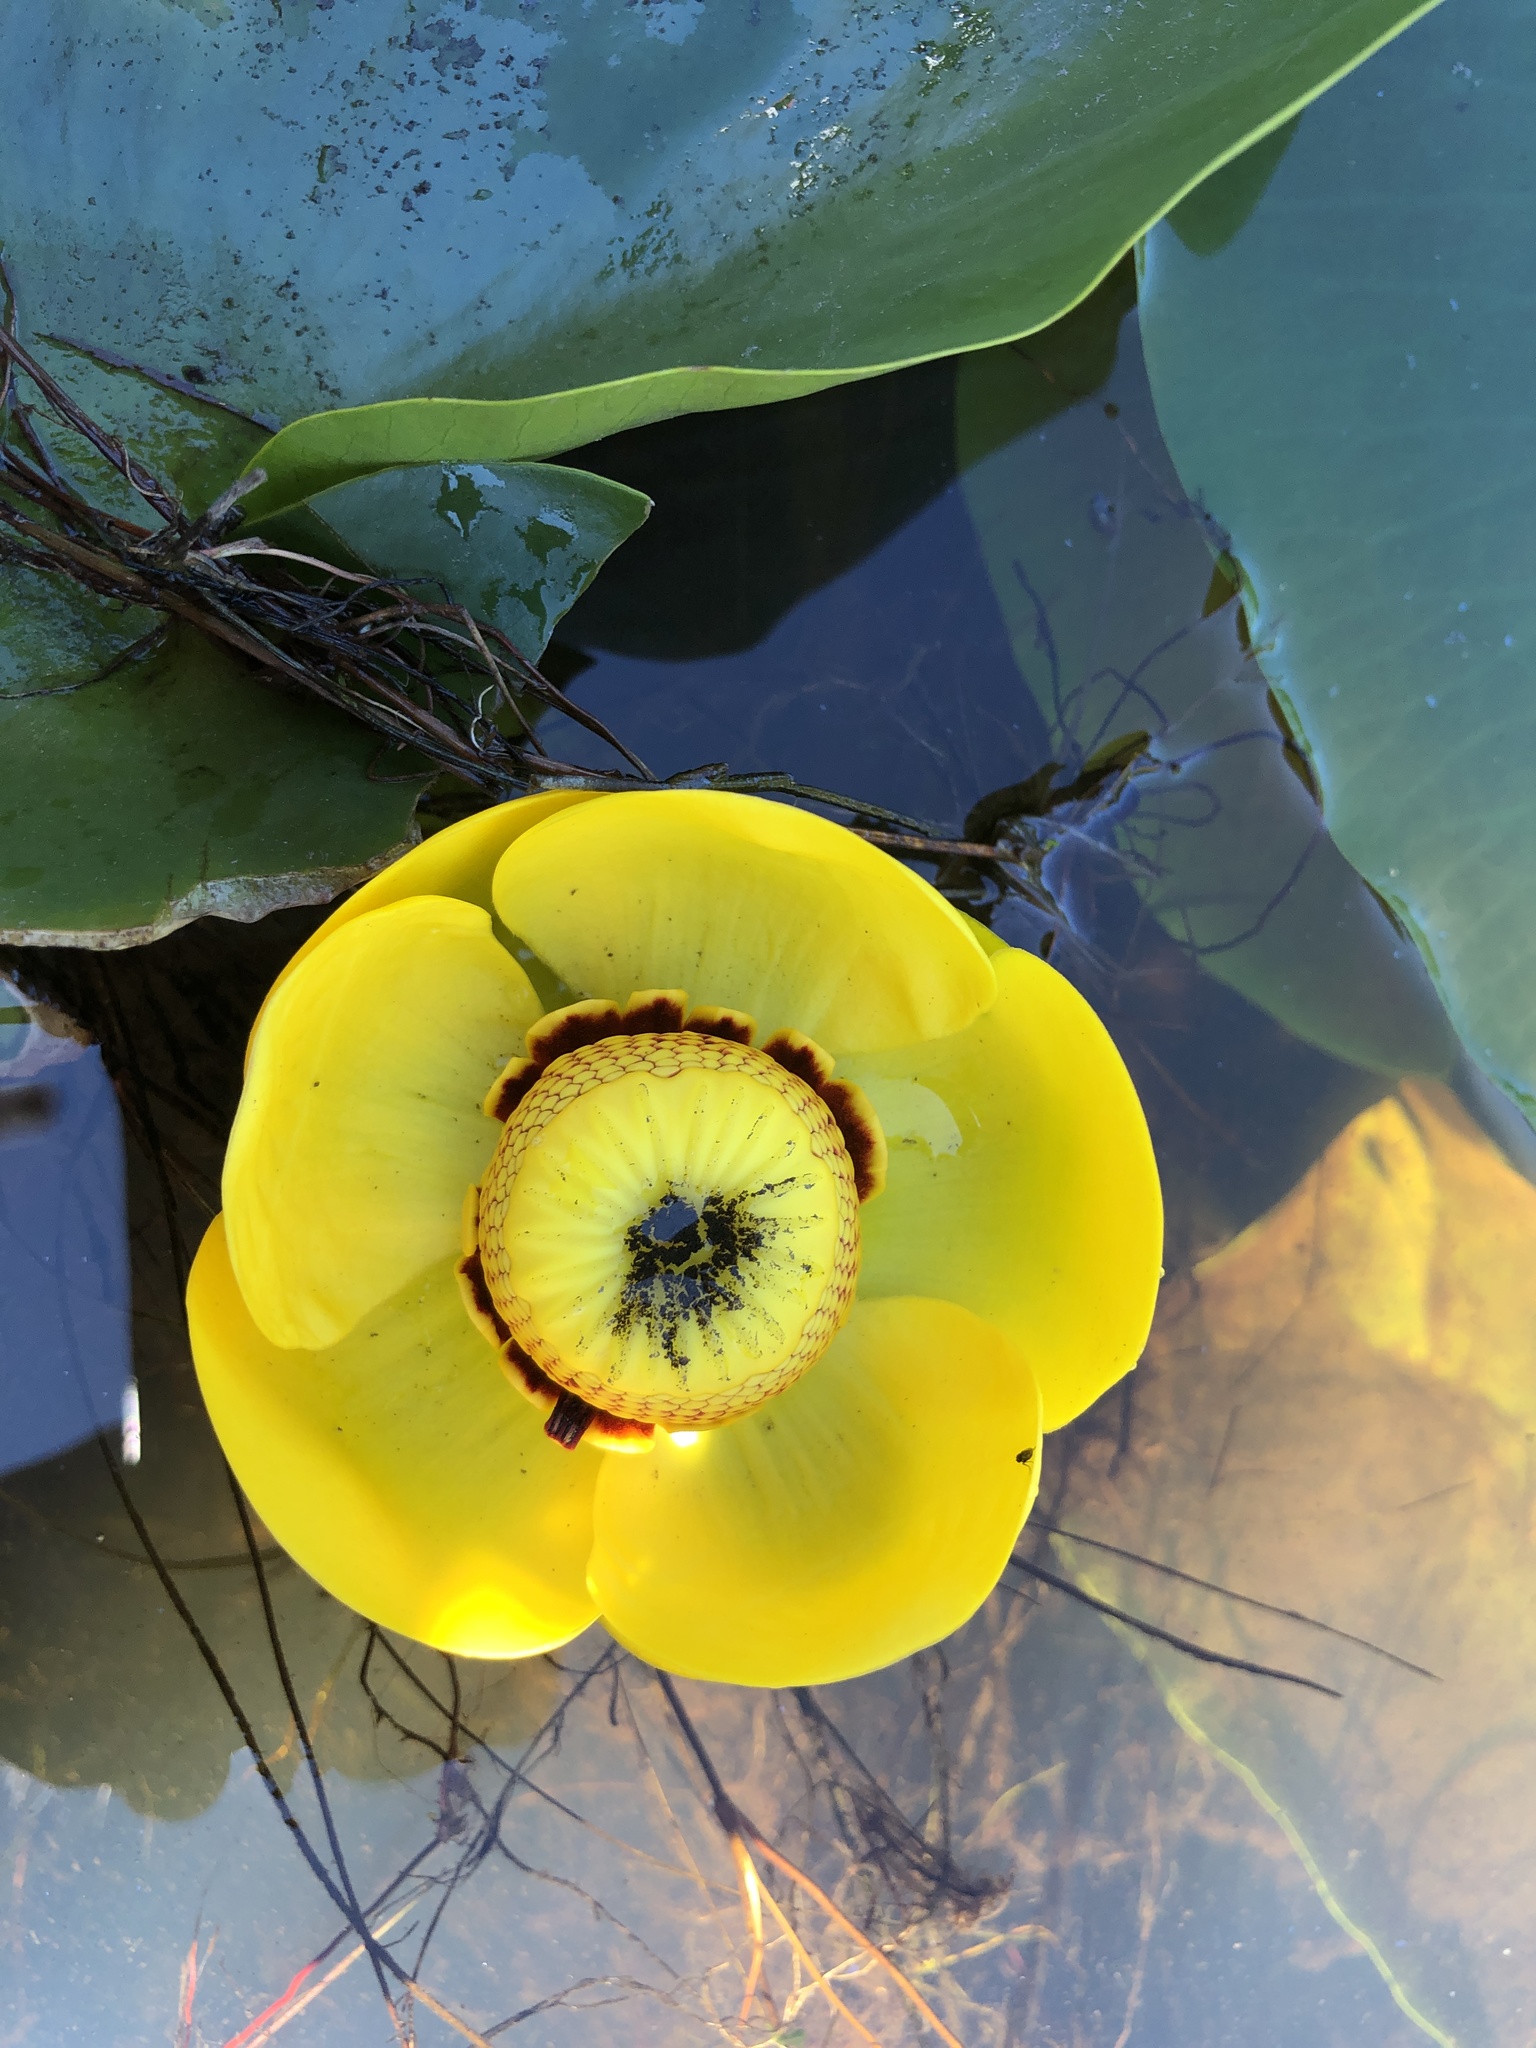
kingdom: Plantae
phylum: Tracheophyta
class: Magnoliopsida
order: Nymphaeales
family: Nymphaeaceae
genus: Nuphar
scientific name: Nuphar polysepala
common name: Rocky mountain cow-lily
